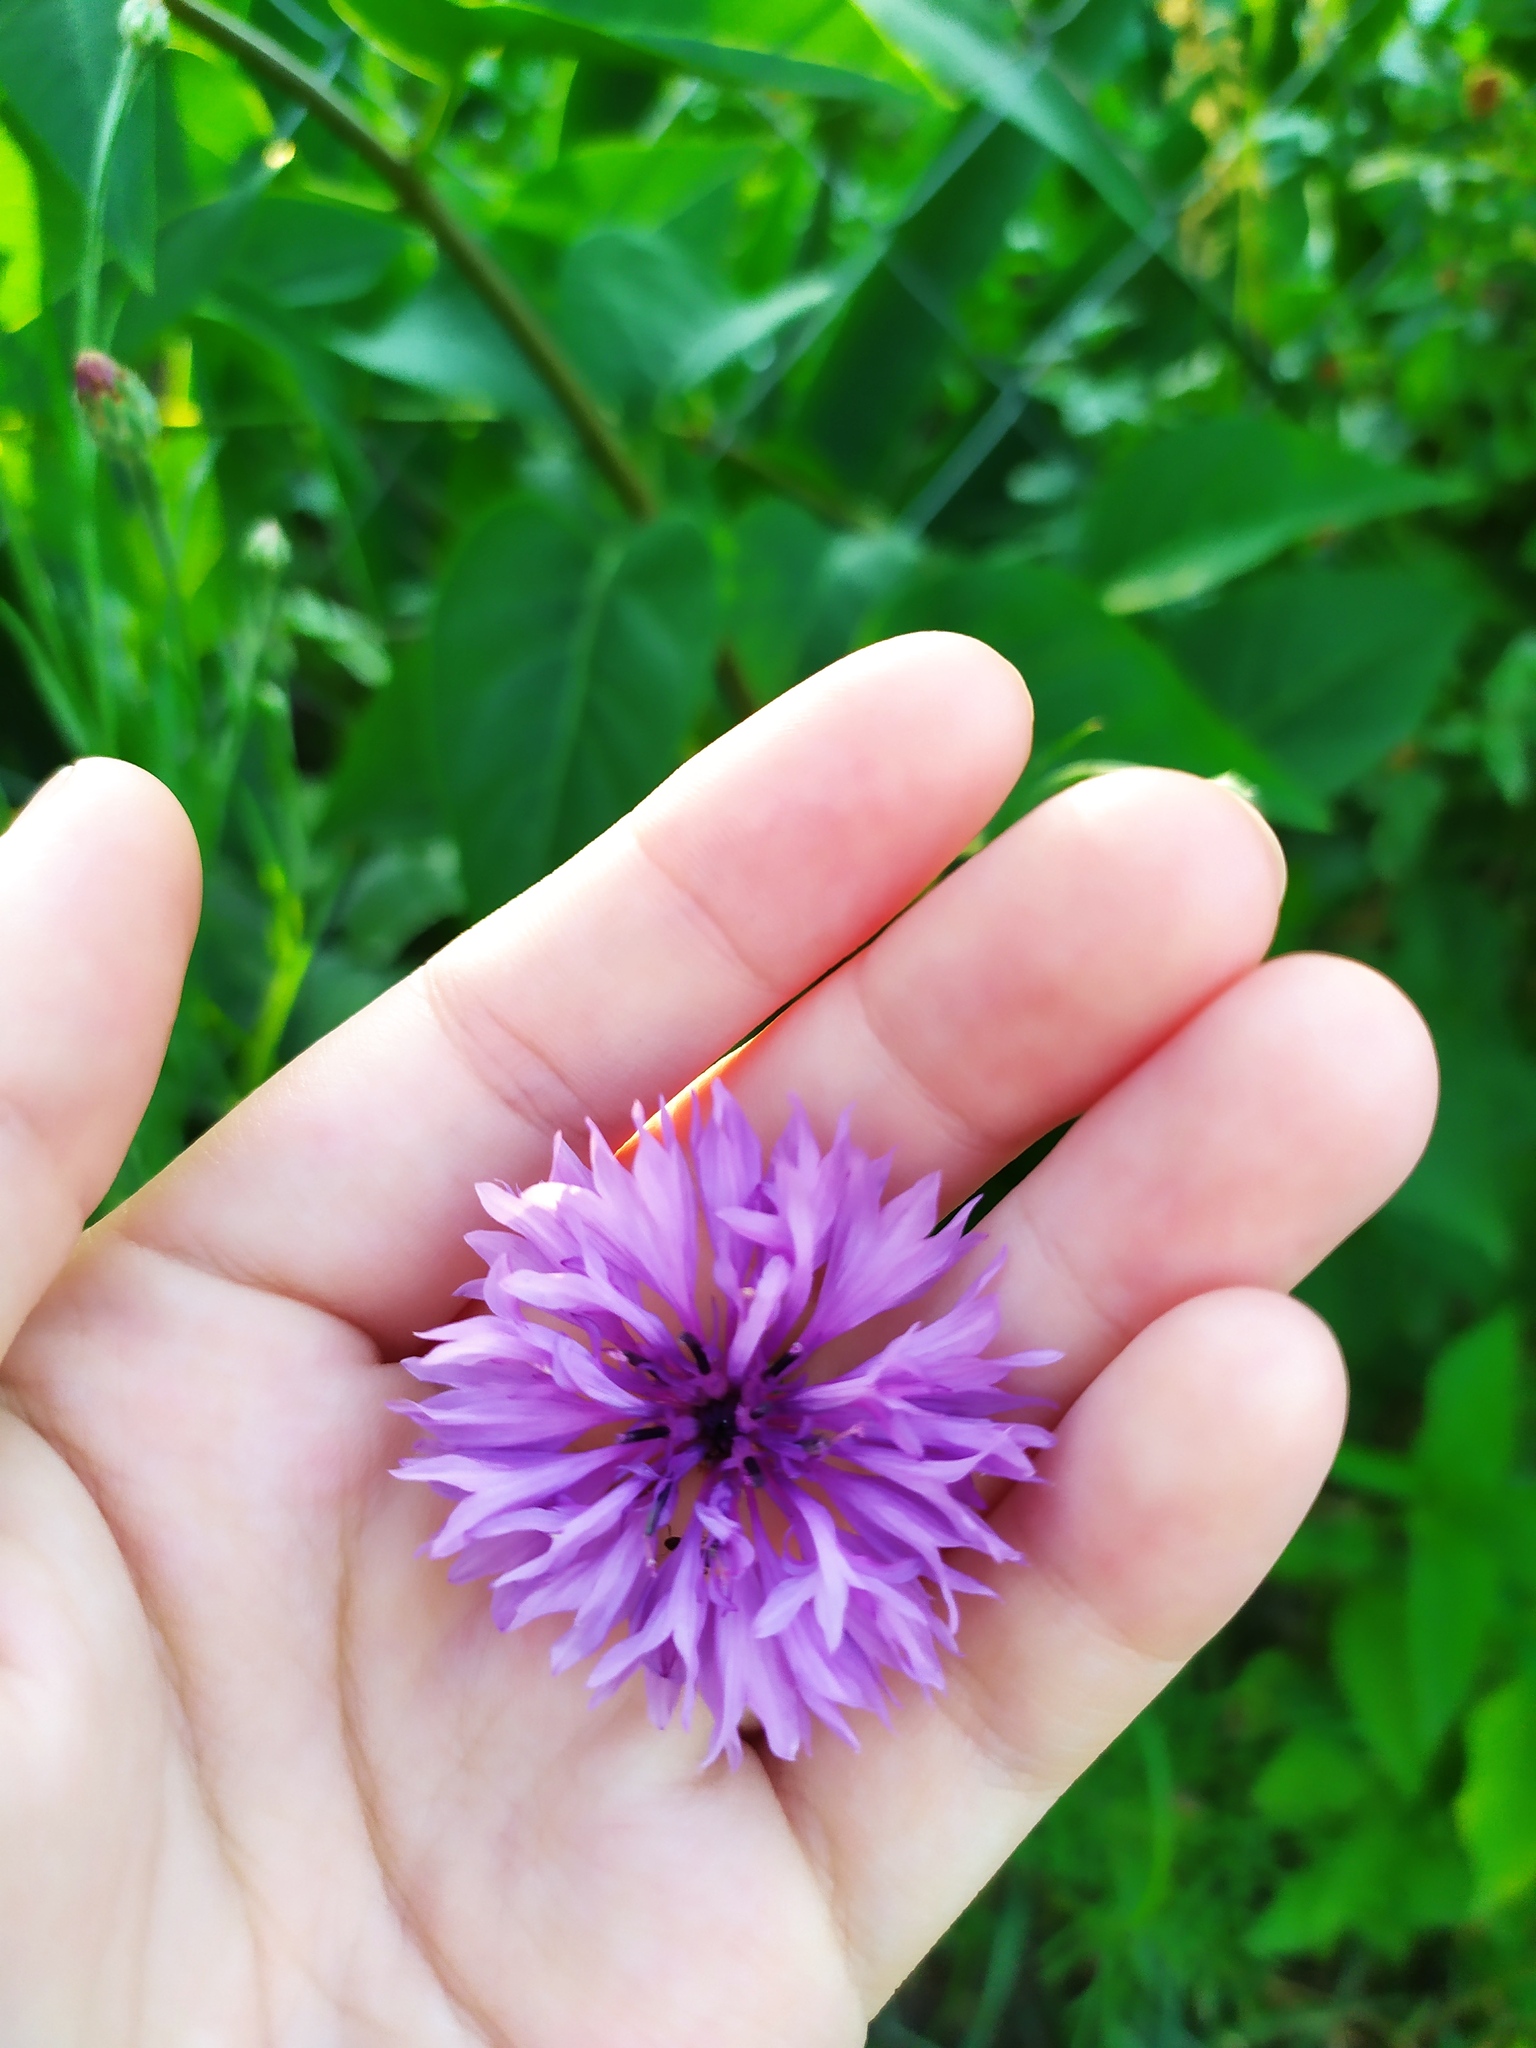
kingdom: Plantae
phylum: Tracheophyta
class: Magnoliopsida
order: Asterales
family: Asteraceae
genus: Centaurea
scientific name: Centaurea cyanus
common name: Cornflower
